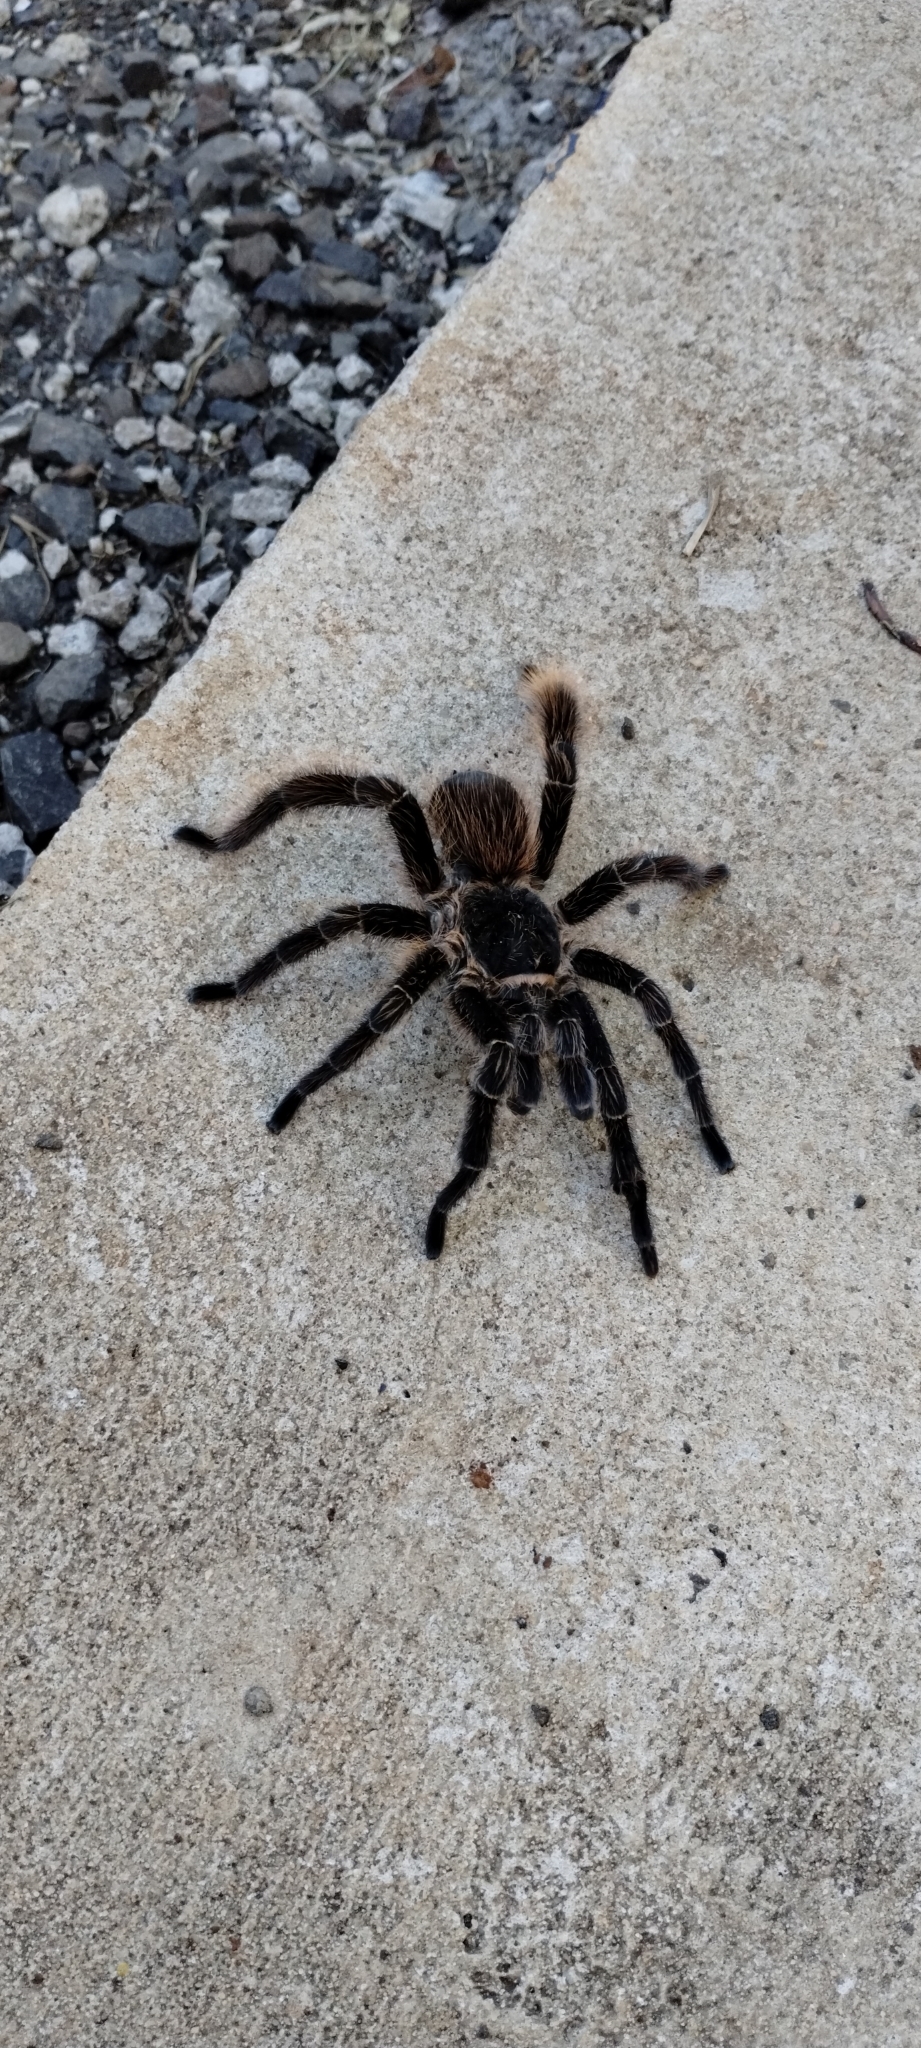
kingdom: Animalia
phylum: Arthropoda
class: Arachnida
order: Araneae
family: Theraphosidae
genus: Eupalaestrus
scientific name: Eupalaestrus crassimetatarsis
